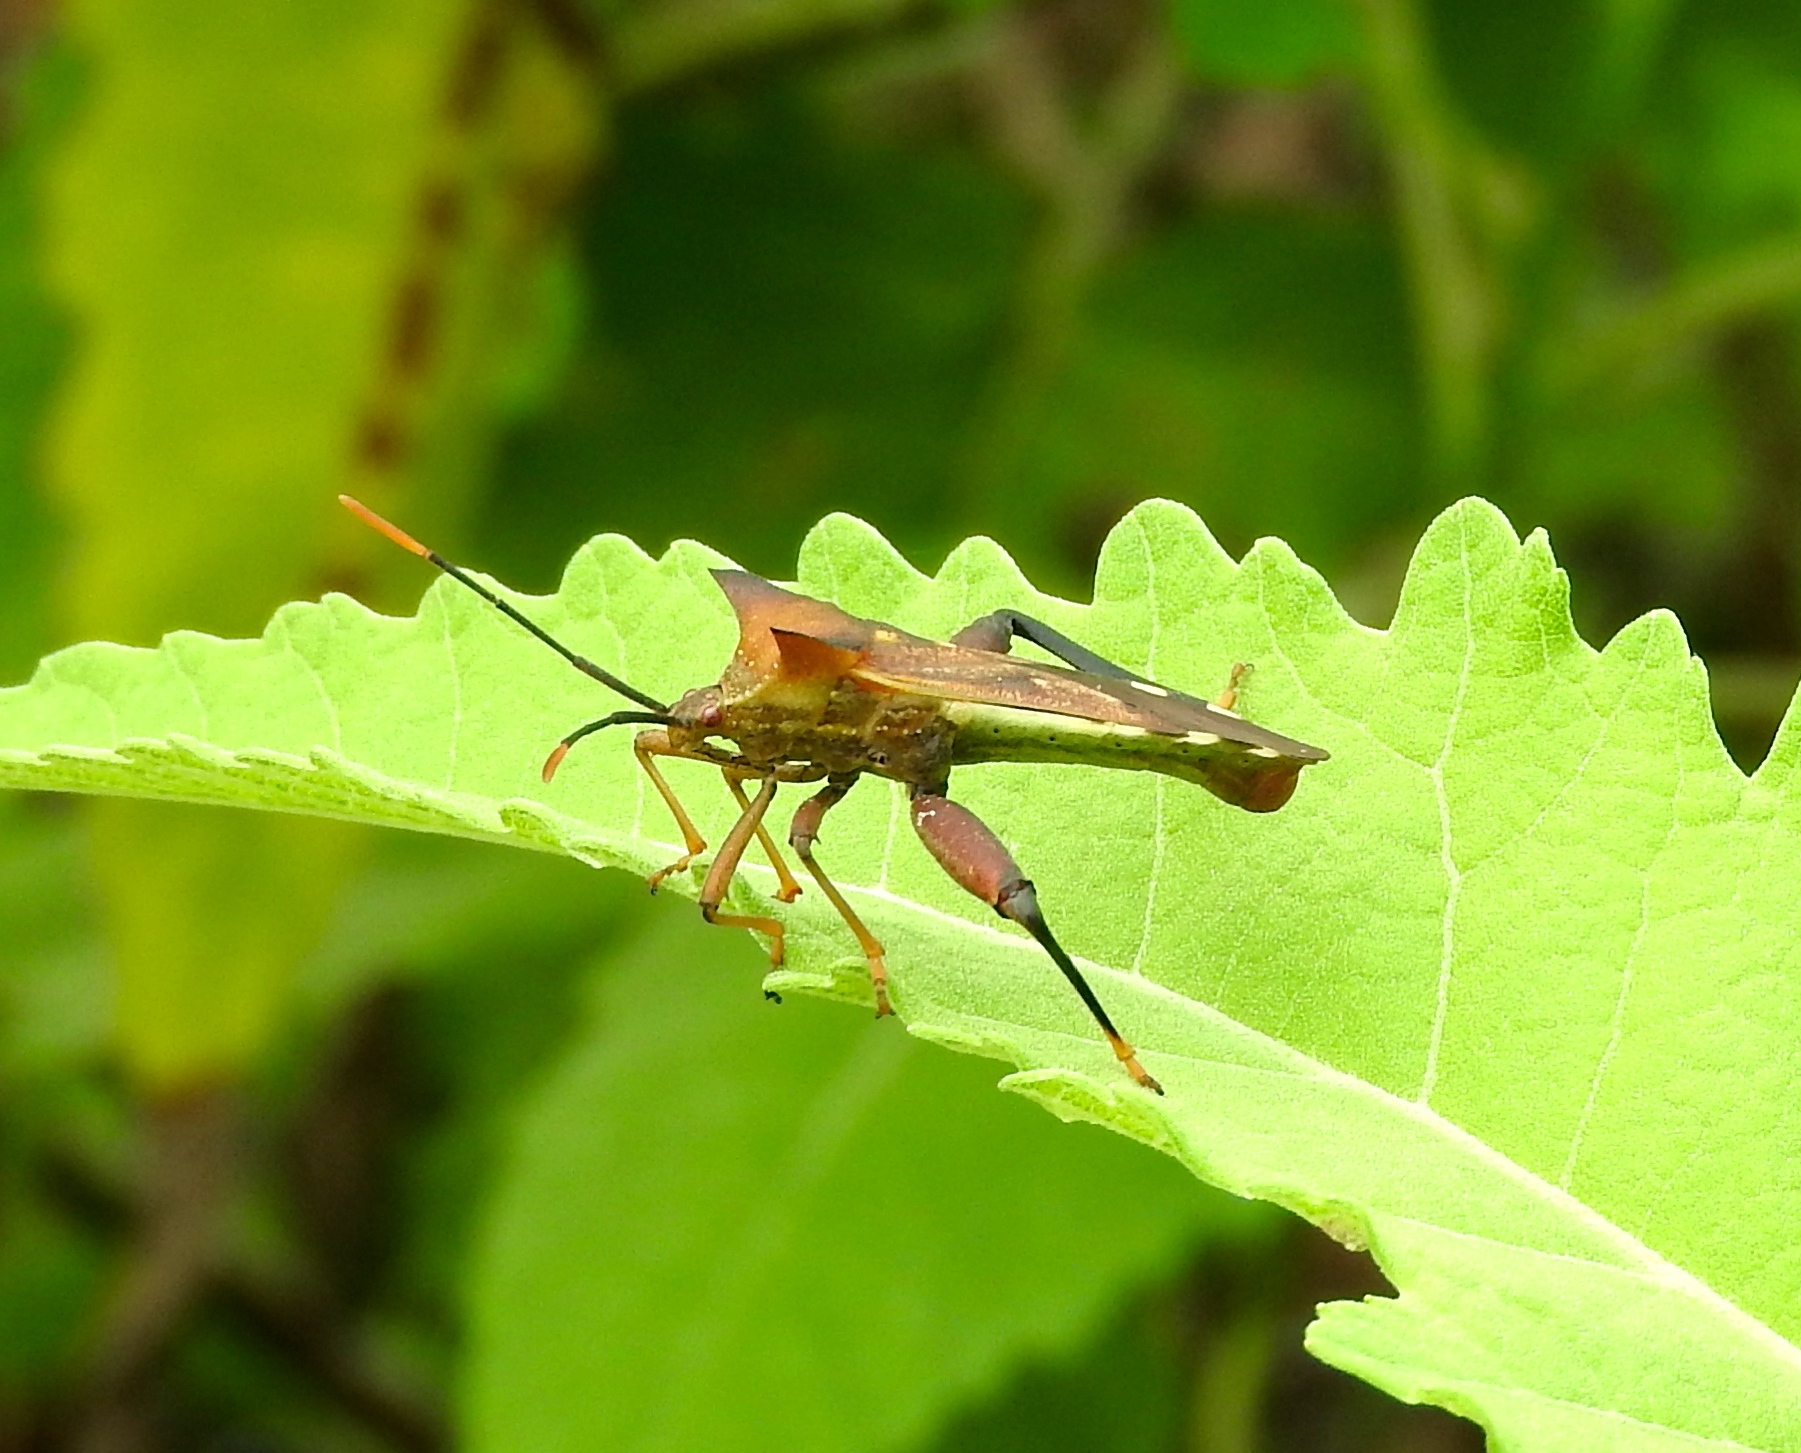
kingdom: Animalia
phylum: Arthropoda
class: Insecta
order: Hemiptera
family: Coreidae
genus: Mozena
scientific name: Mozena lunata
